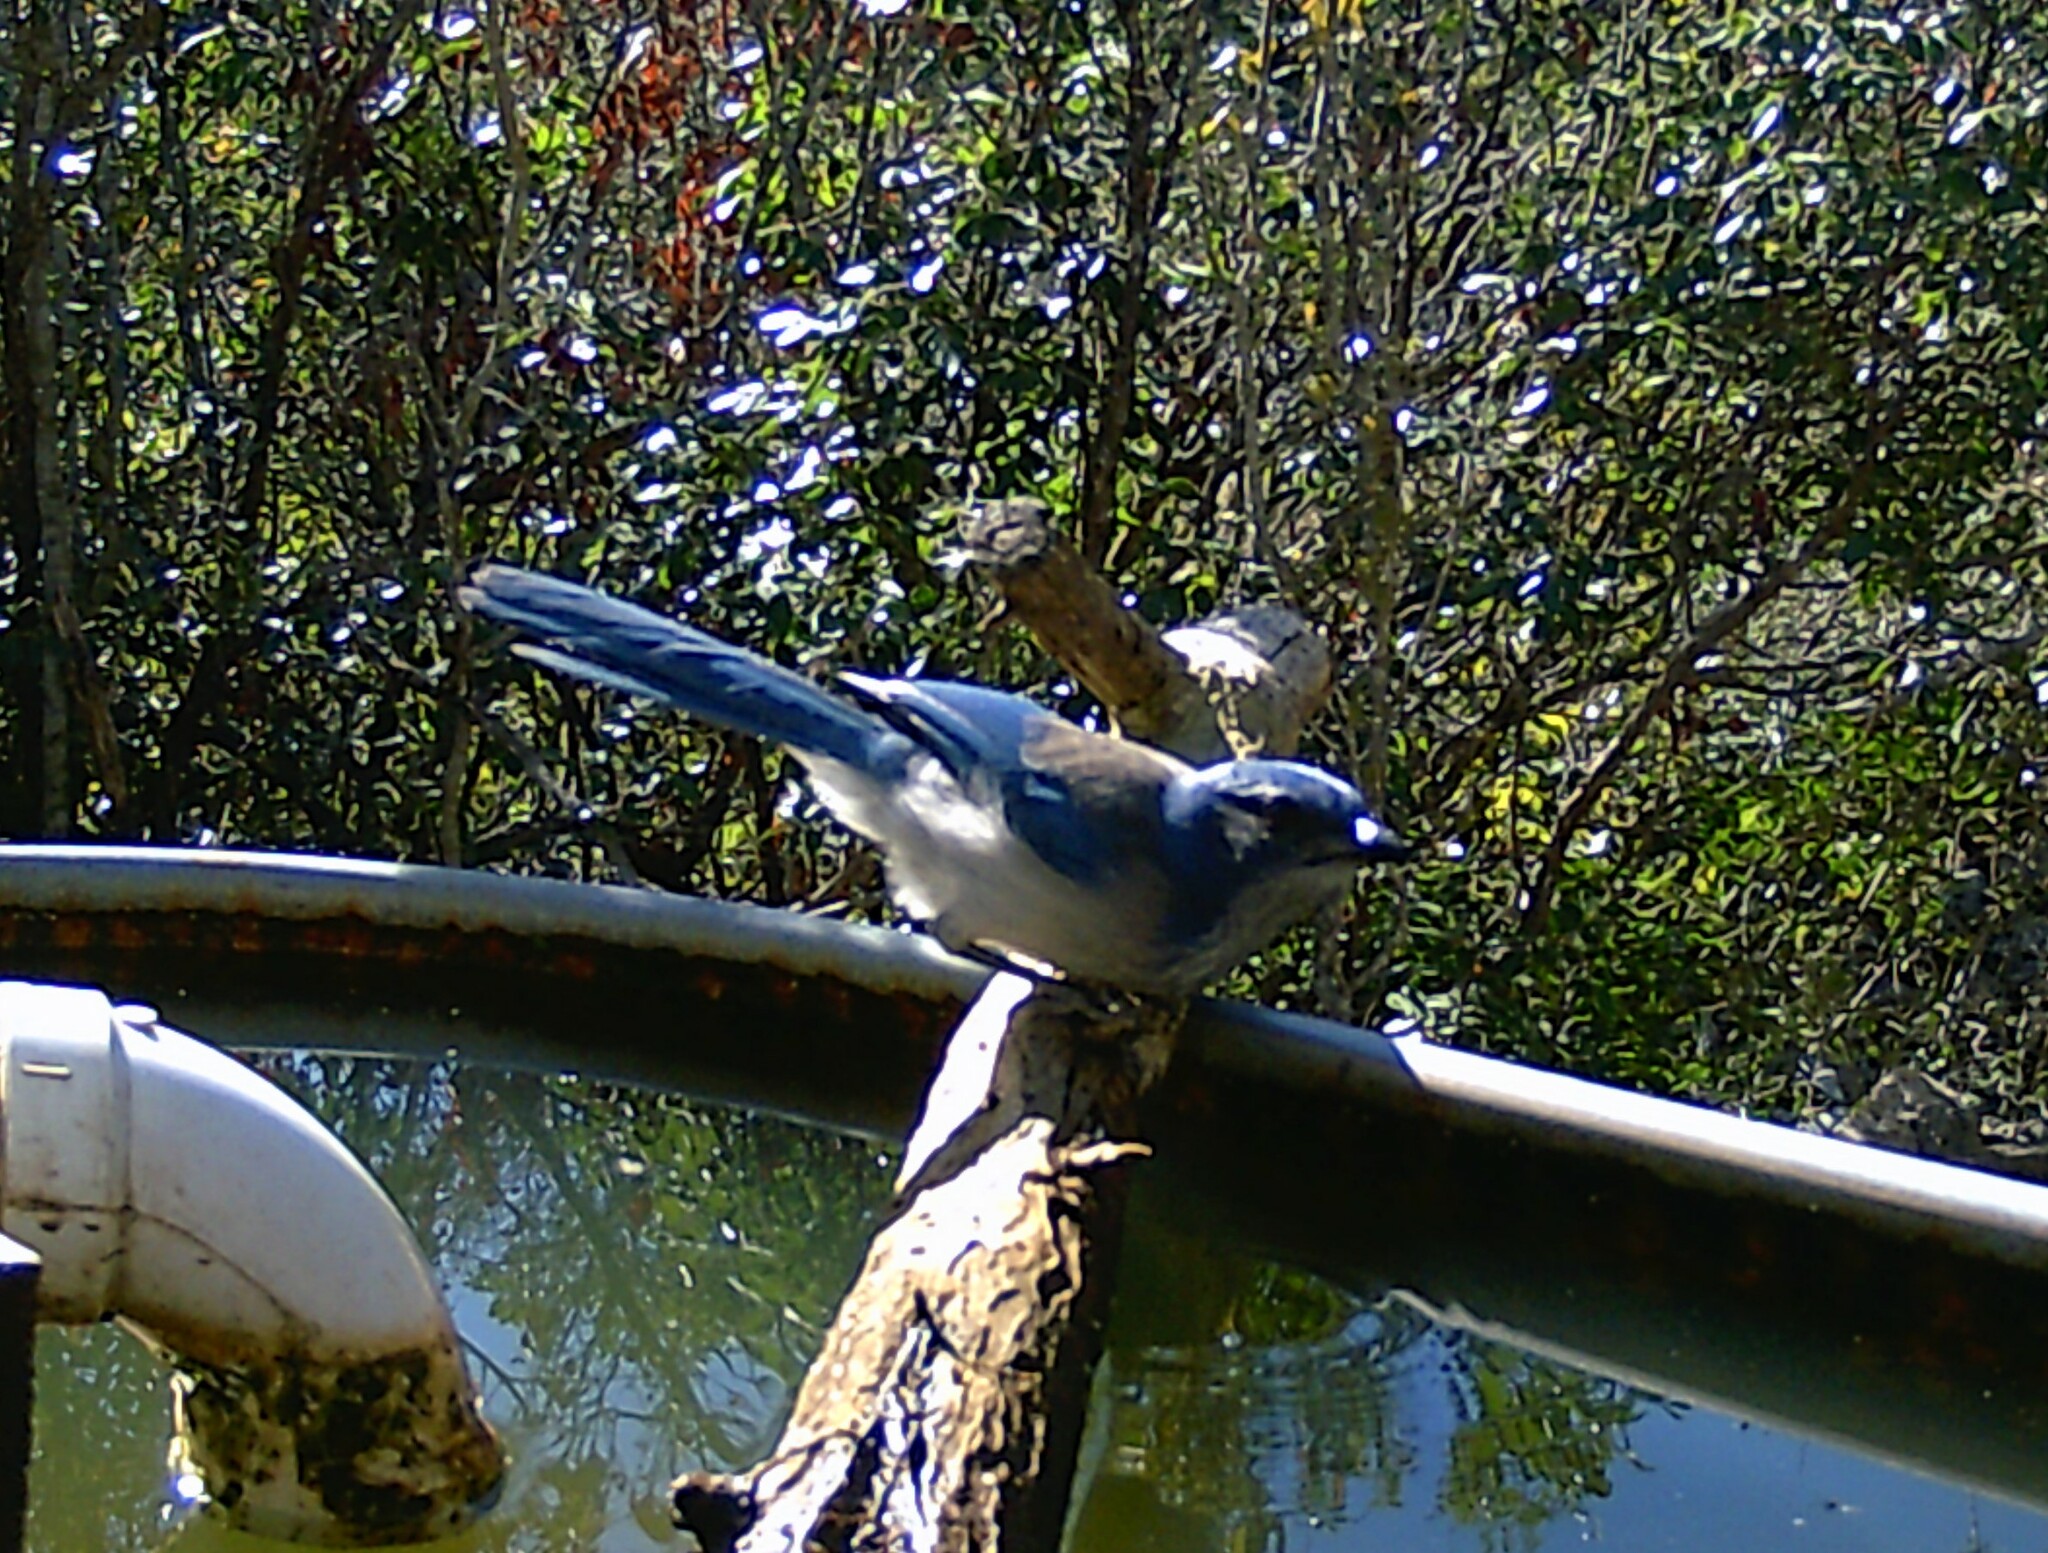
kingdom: Animalia
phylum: Chordata
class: Aves
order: Passeriformes
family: Corvidae
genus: Aphelocoma
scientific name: Aphelocoma woodhouseii
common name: Woodhouse's scrub-jay
